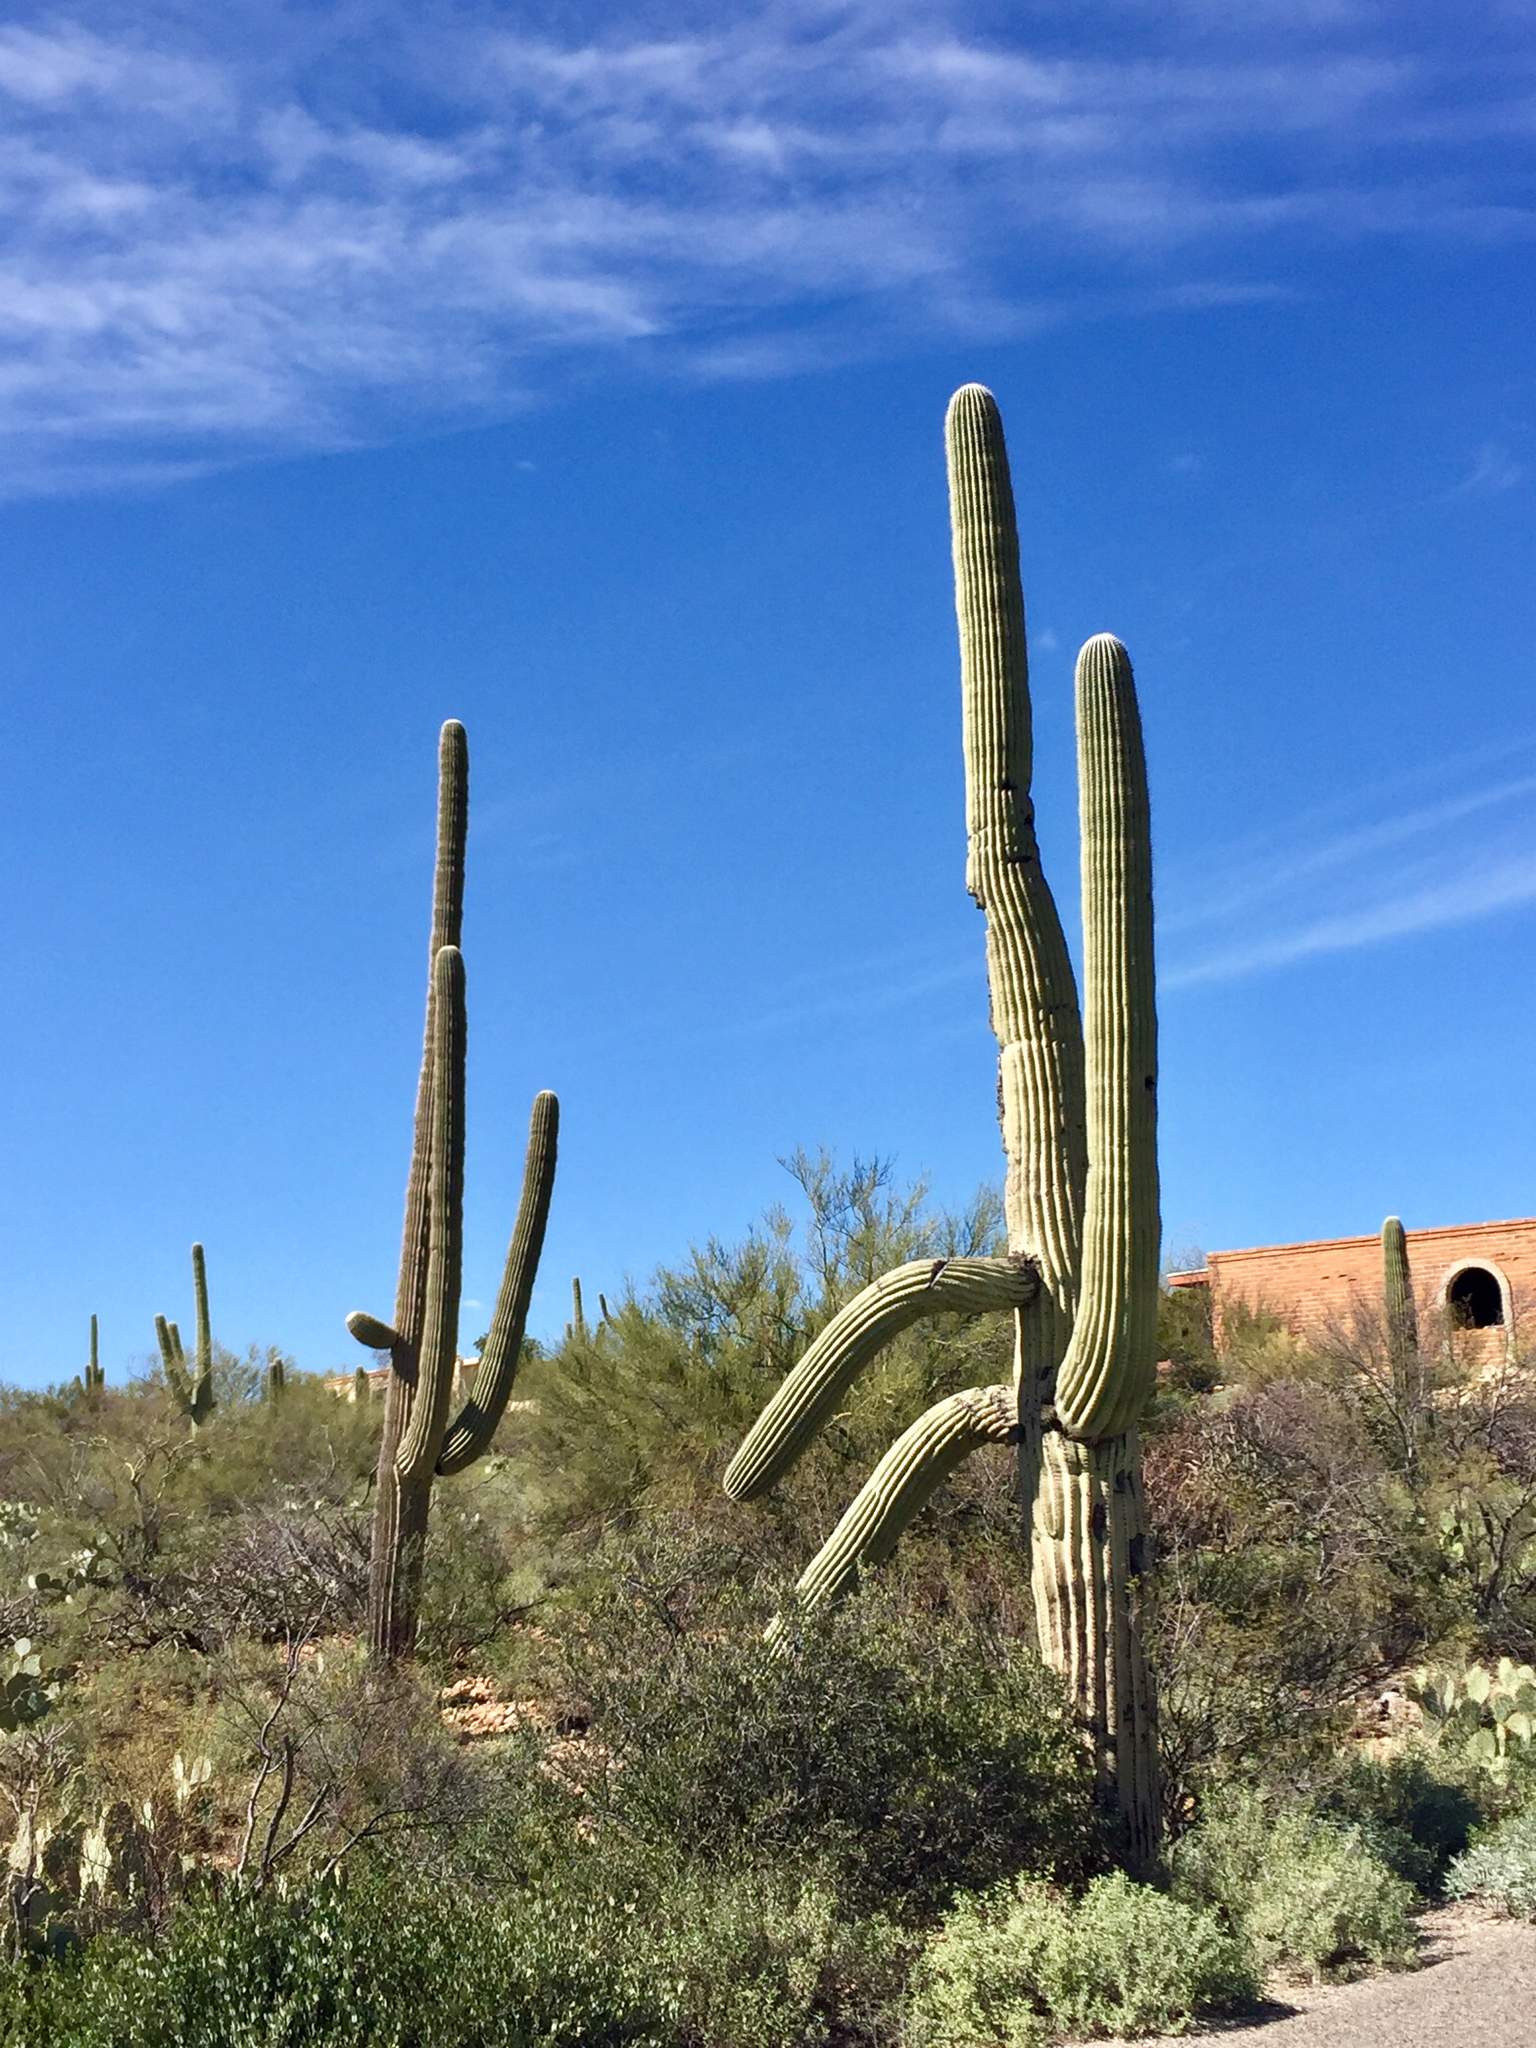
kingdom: Plantae
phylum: Tracheophyta
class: Magnoliopsida
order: Caryophyllales
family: Cactaceae
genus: Carnegiea
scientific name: Carnegiea gigantea
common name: Saguaro
